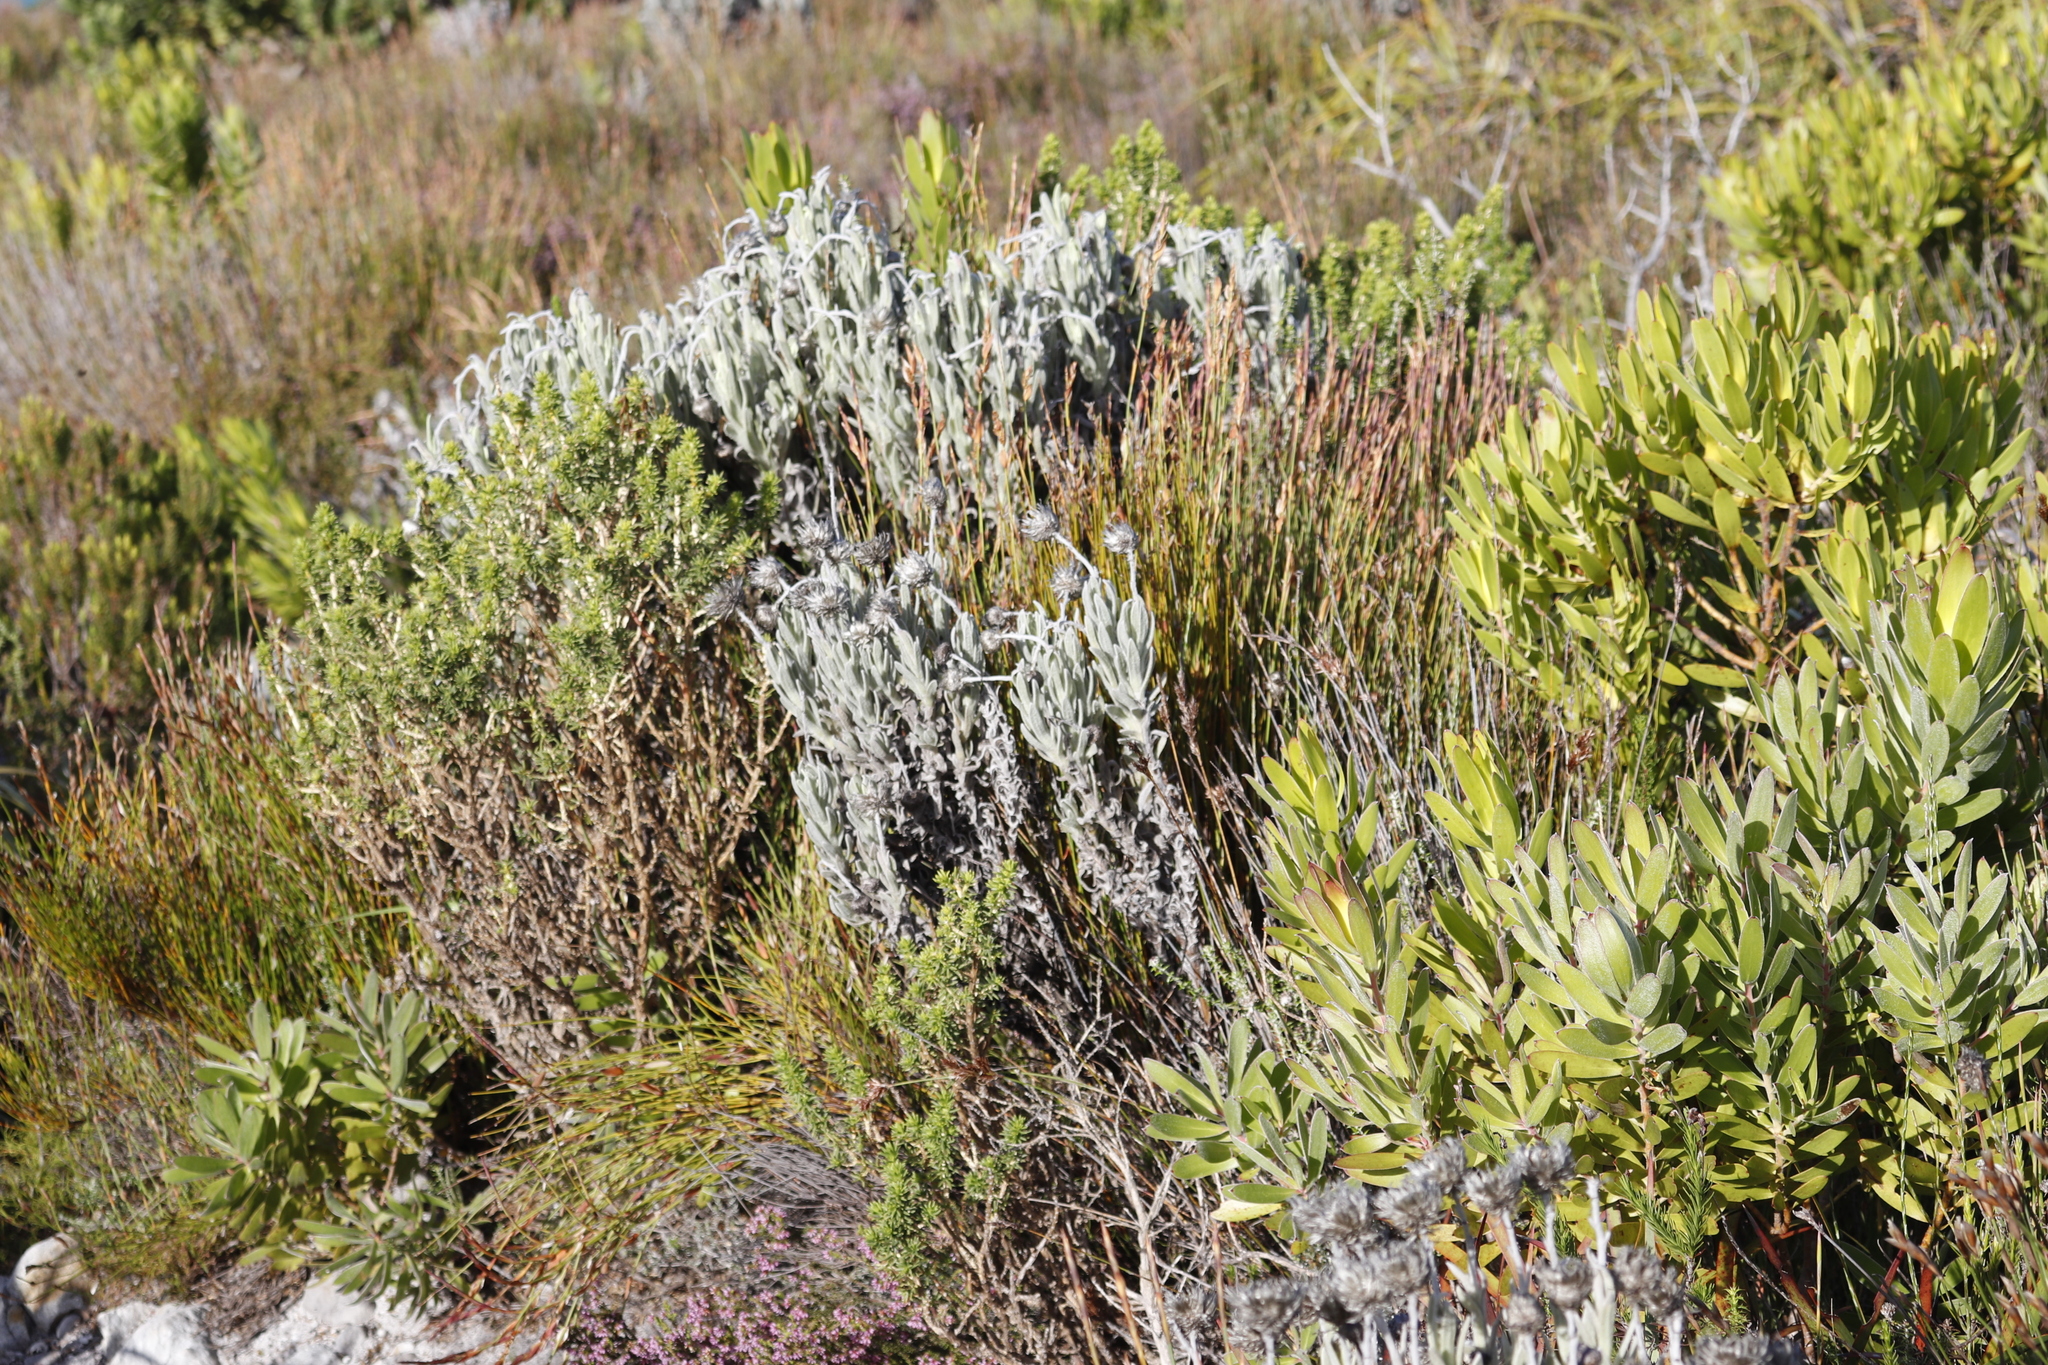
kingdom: Plantae
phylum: Tracheophyta
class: Magnoliopsida
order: Asterales
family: Asteraceae
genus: Syncarpha
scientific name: Syncarpha vestita
